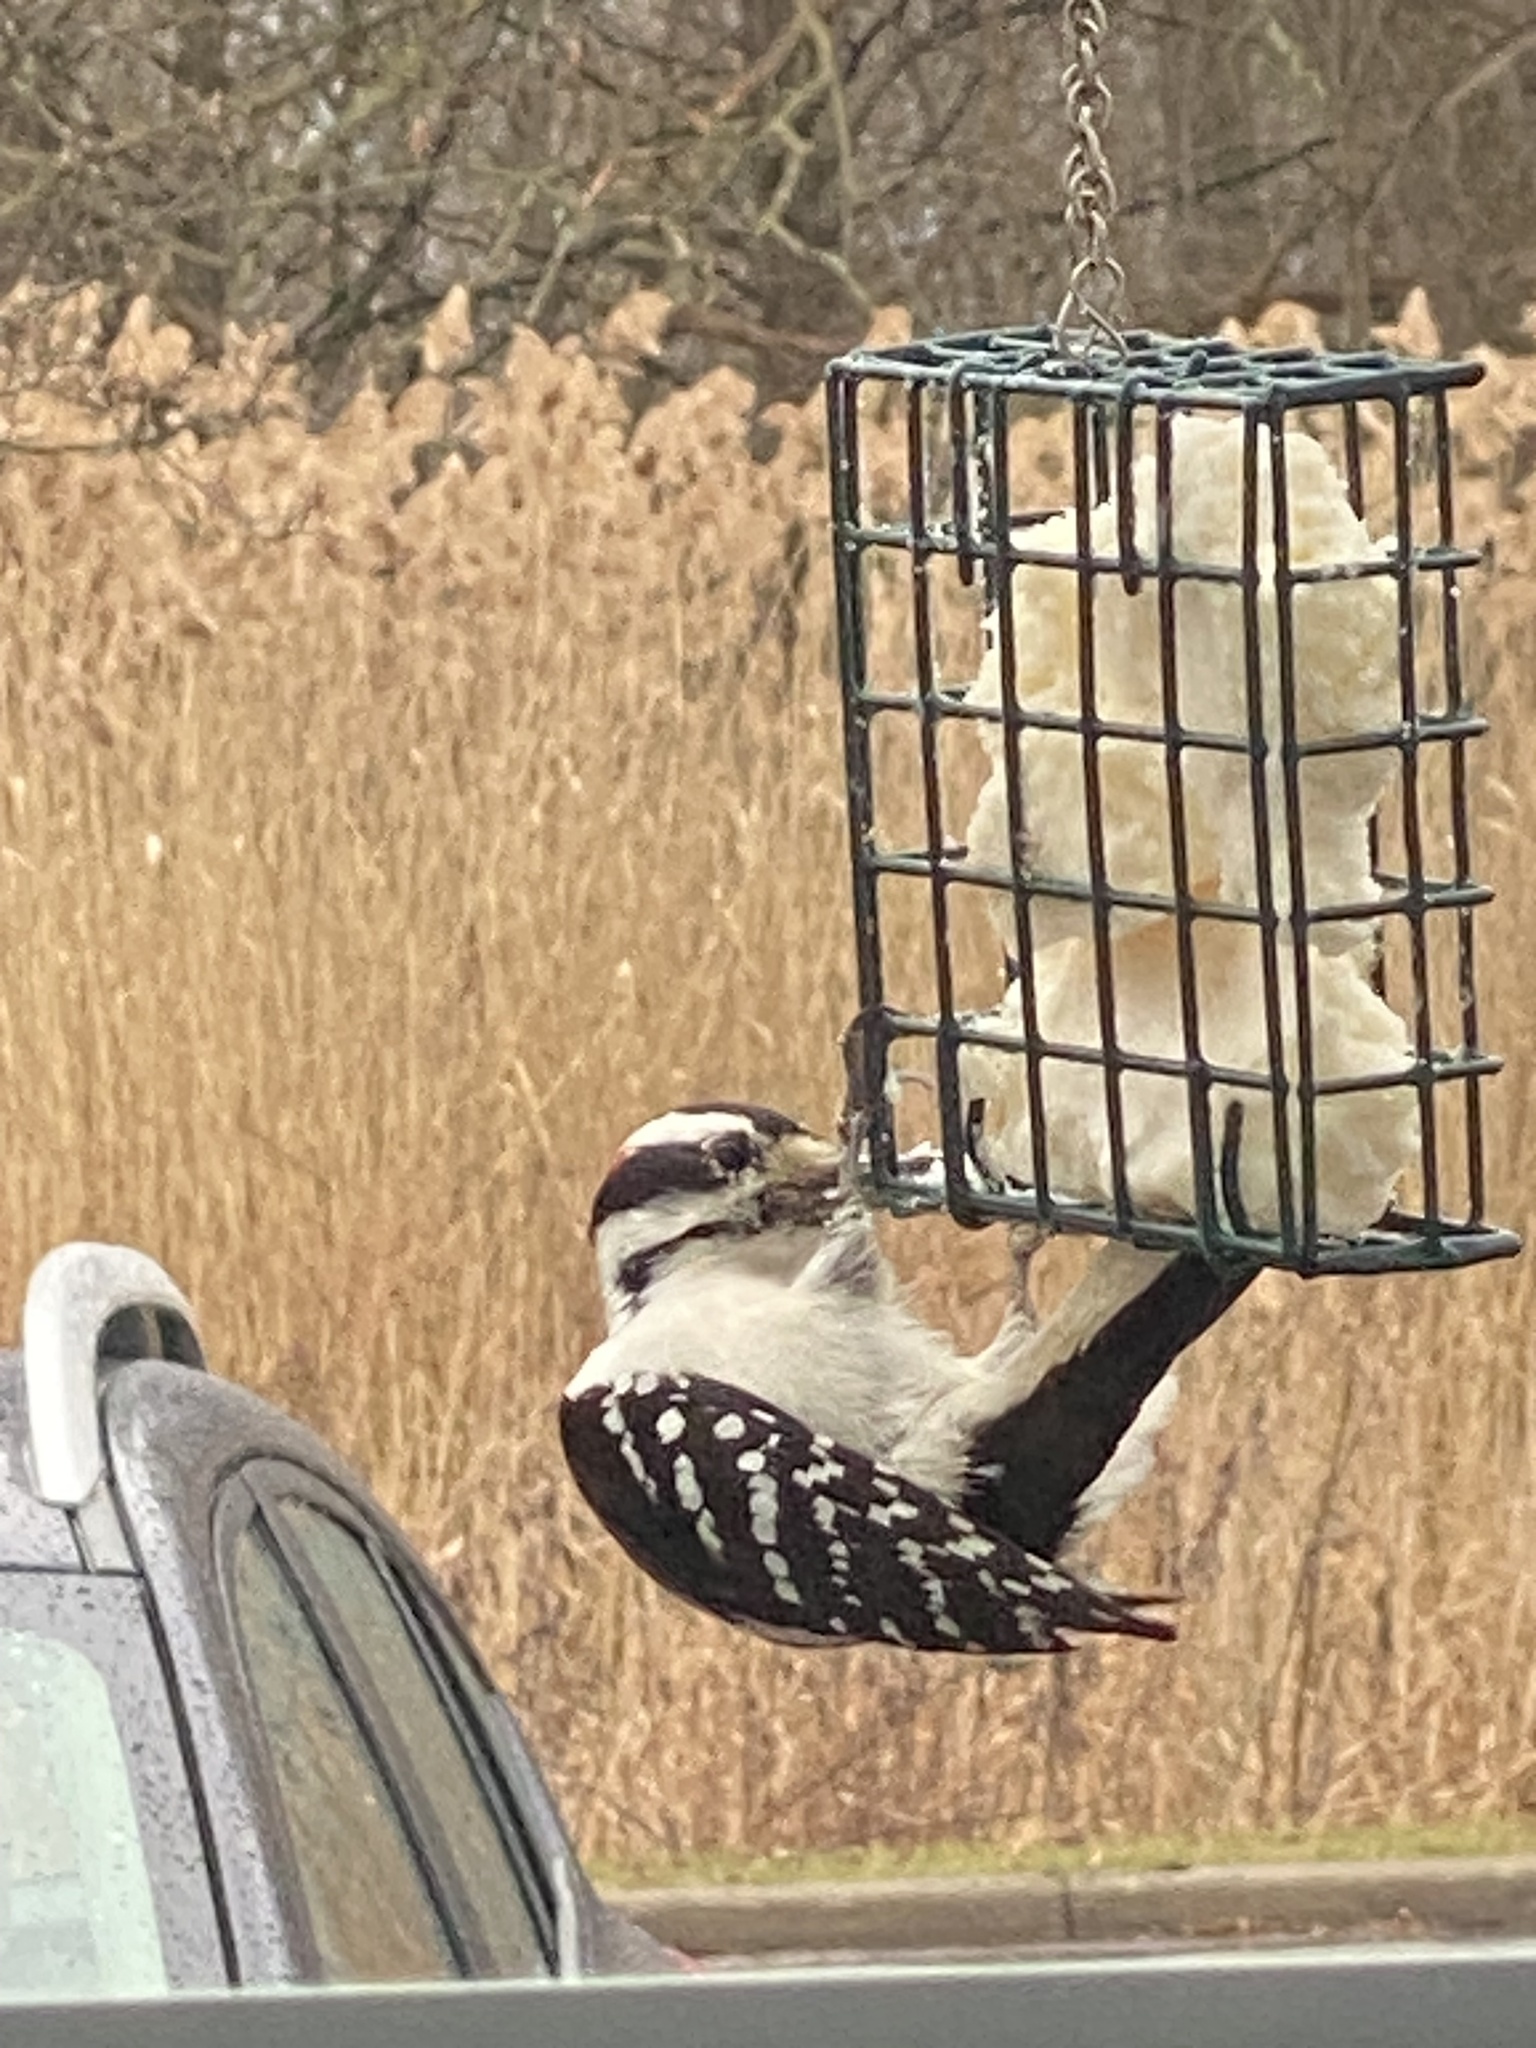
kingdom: Animalia
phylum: Chordata
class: Aves
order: Piciformes
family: Picidae
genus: Leuconotopicus
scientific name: Leuconotopicus villosus
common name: Hairy woodpecker
